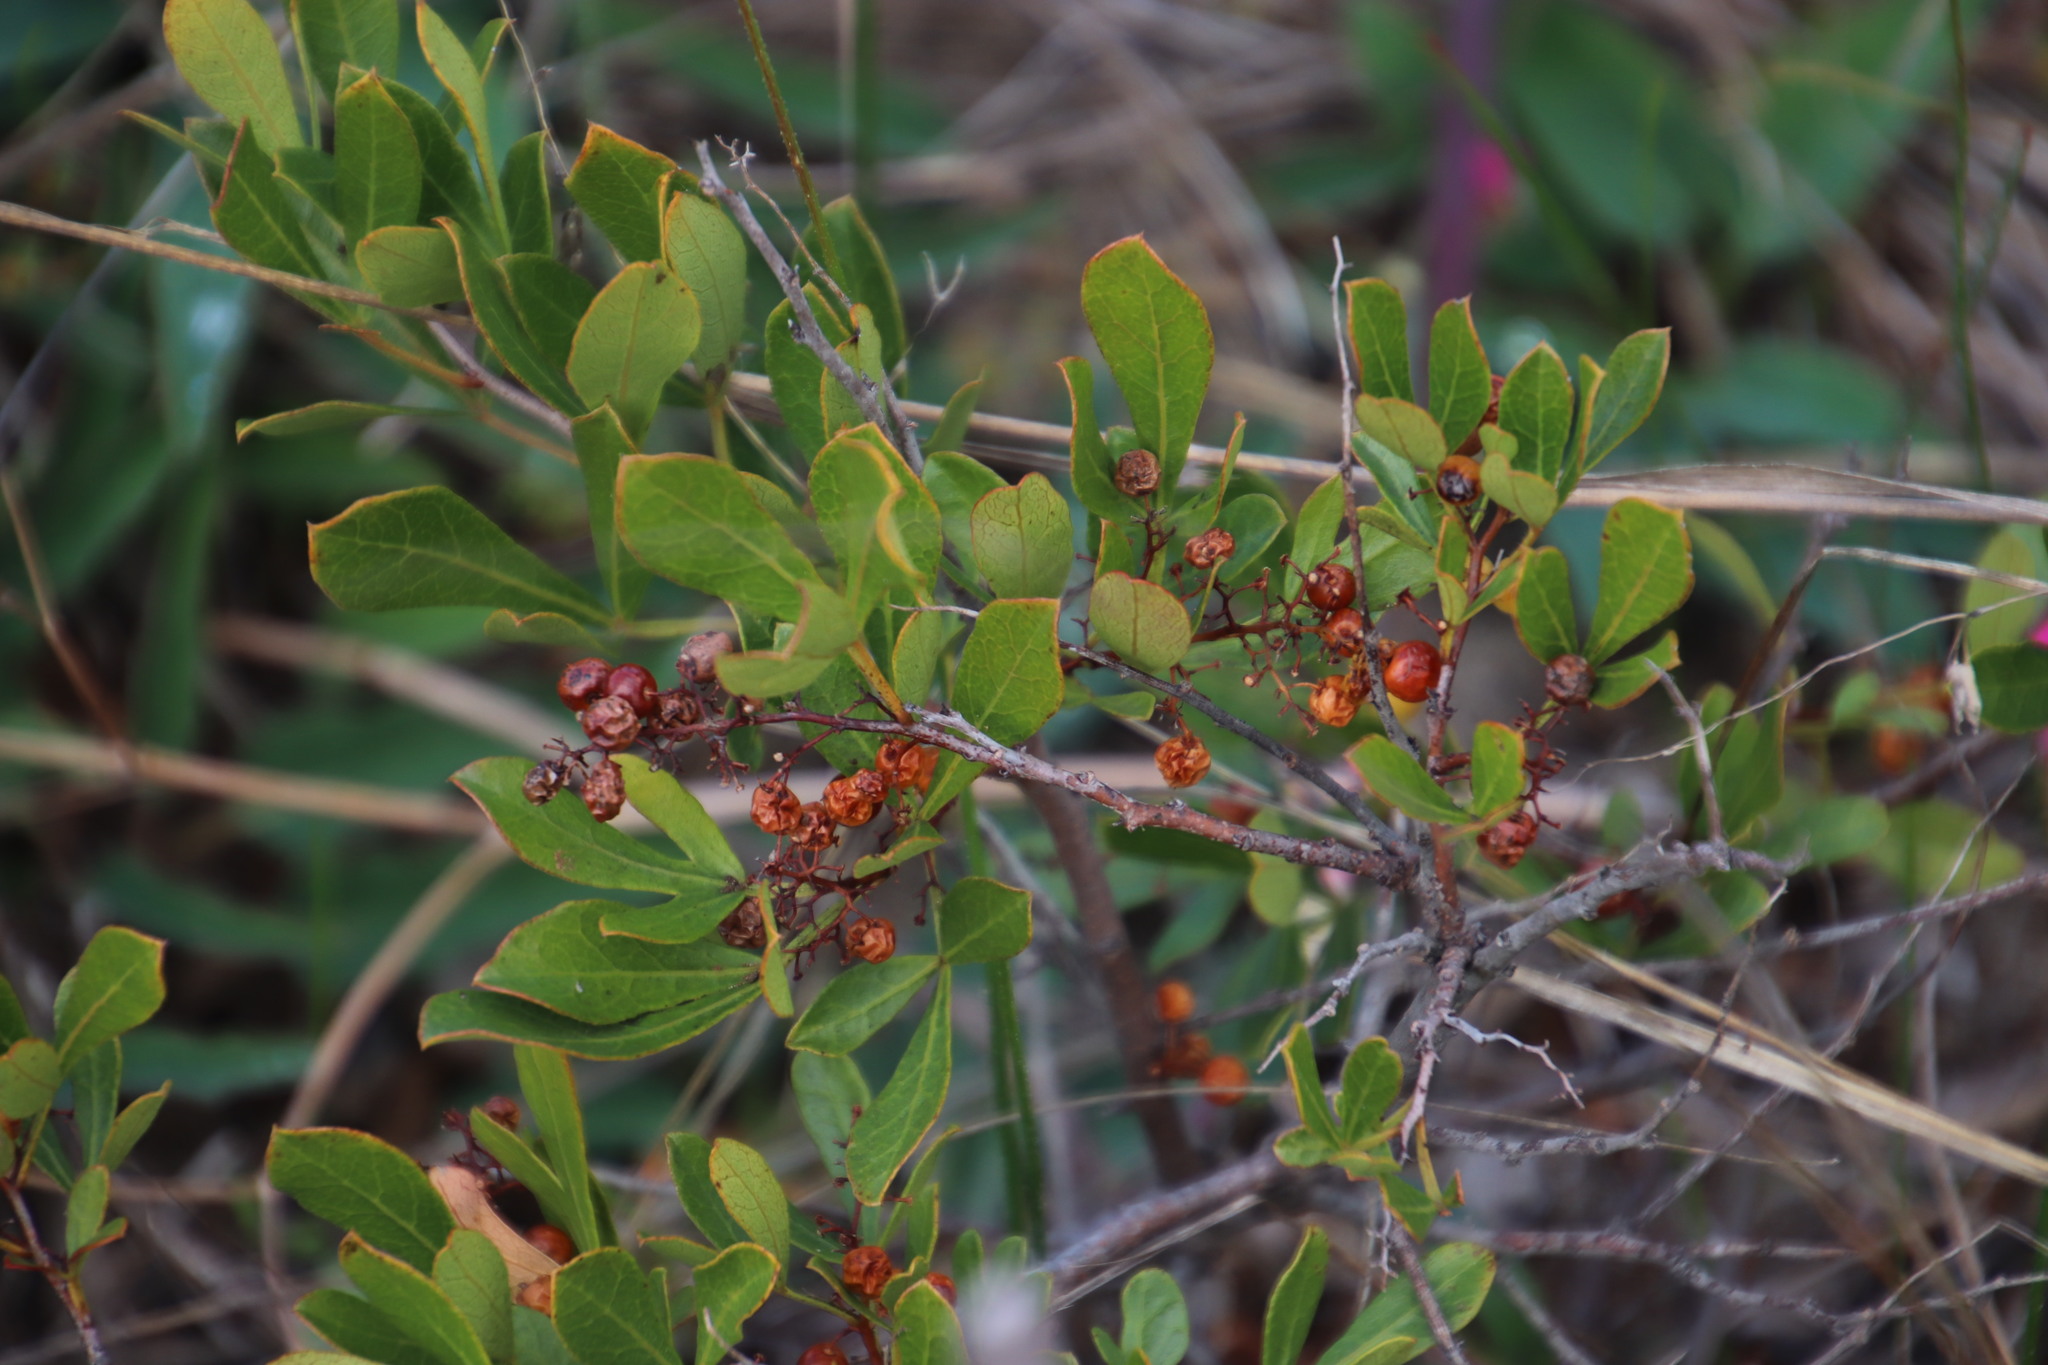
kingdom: Plantae
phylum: Tracheophyta
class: Magnoliopsida
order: Sapindales
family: Anacardiaceae
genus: Searsia
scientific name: Searsia laevigata
